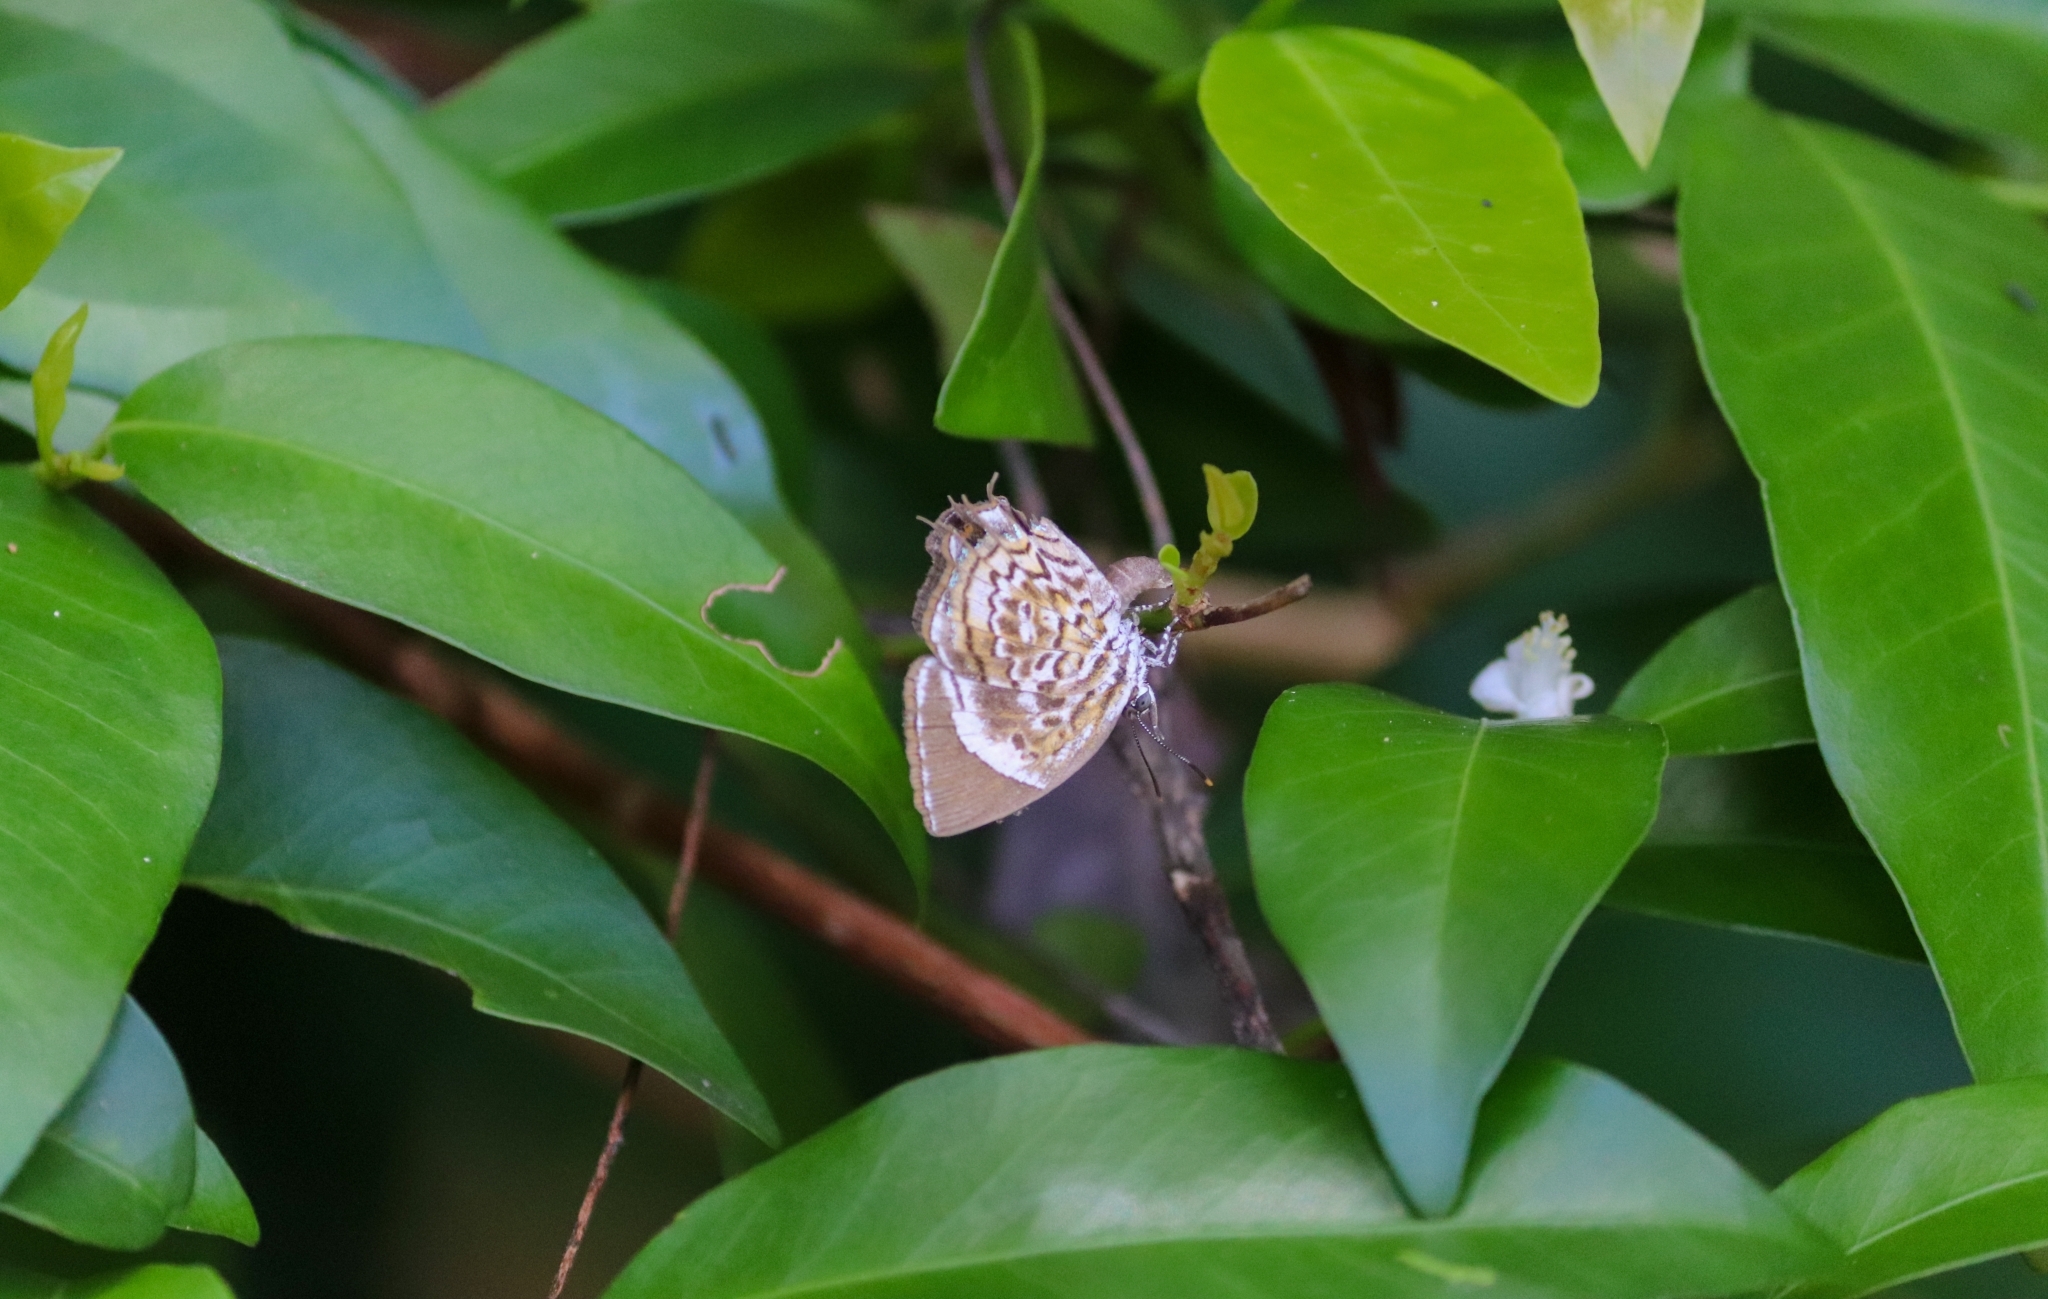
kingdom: Animalia
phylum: Arthropoda
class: Insecta
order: Lepidoptera
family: Lycaenidae
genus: Rathinda
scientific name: Rathinda amor
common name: Monkey puzzle
